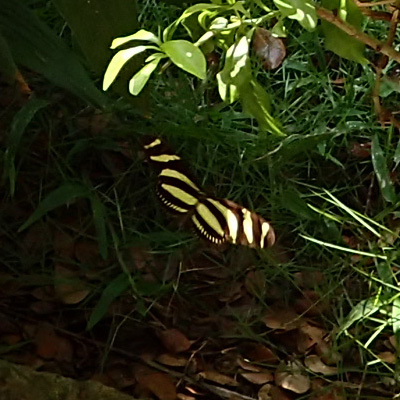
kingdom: Animalia
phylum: Arthropoda
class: Insecta
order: Lepidoptera
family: Nymphalidae
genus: Heliconius
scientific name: Heliconius charithonia
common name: Zebra long wing
